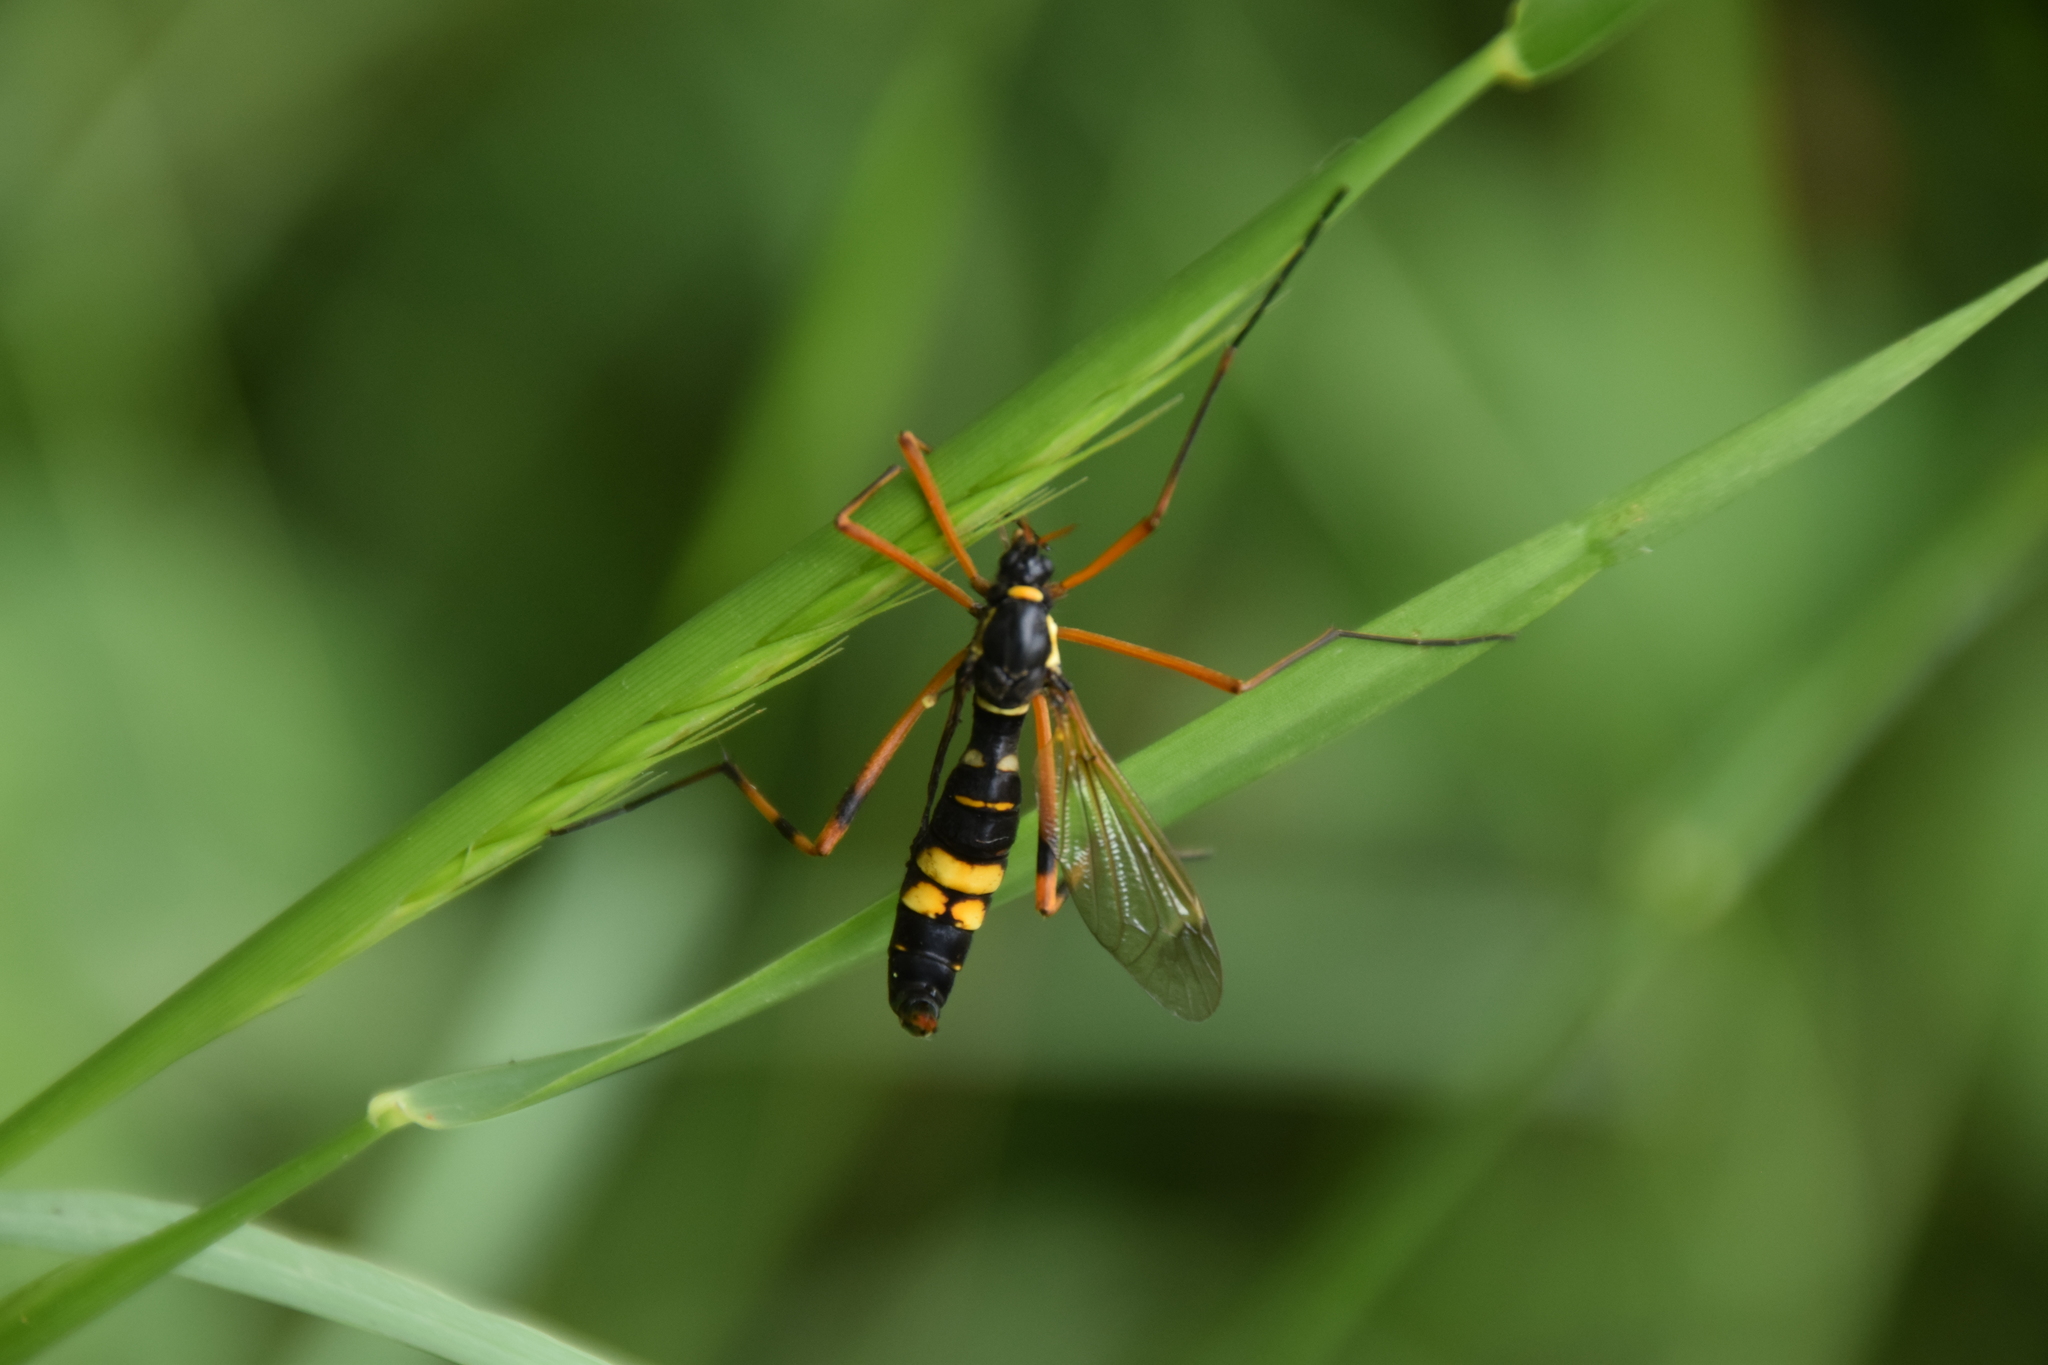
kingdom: Animalia
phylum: Arthropoda
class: Insecta
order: Diptera
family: Tipulidae
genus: Ctenophora
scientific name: Ctenophora festiva
